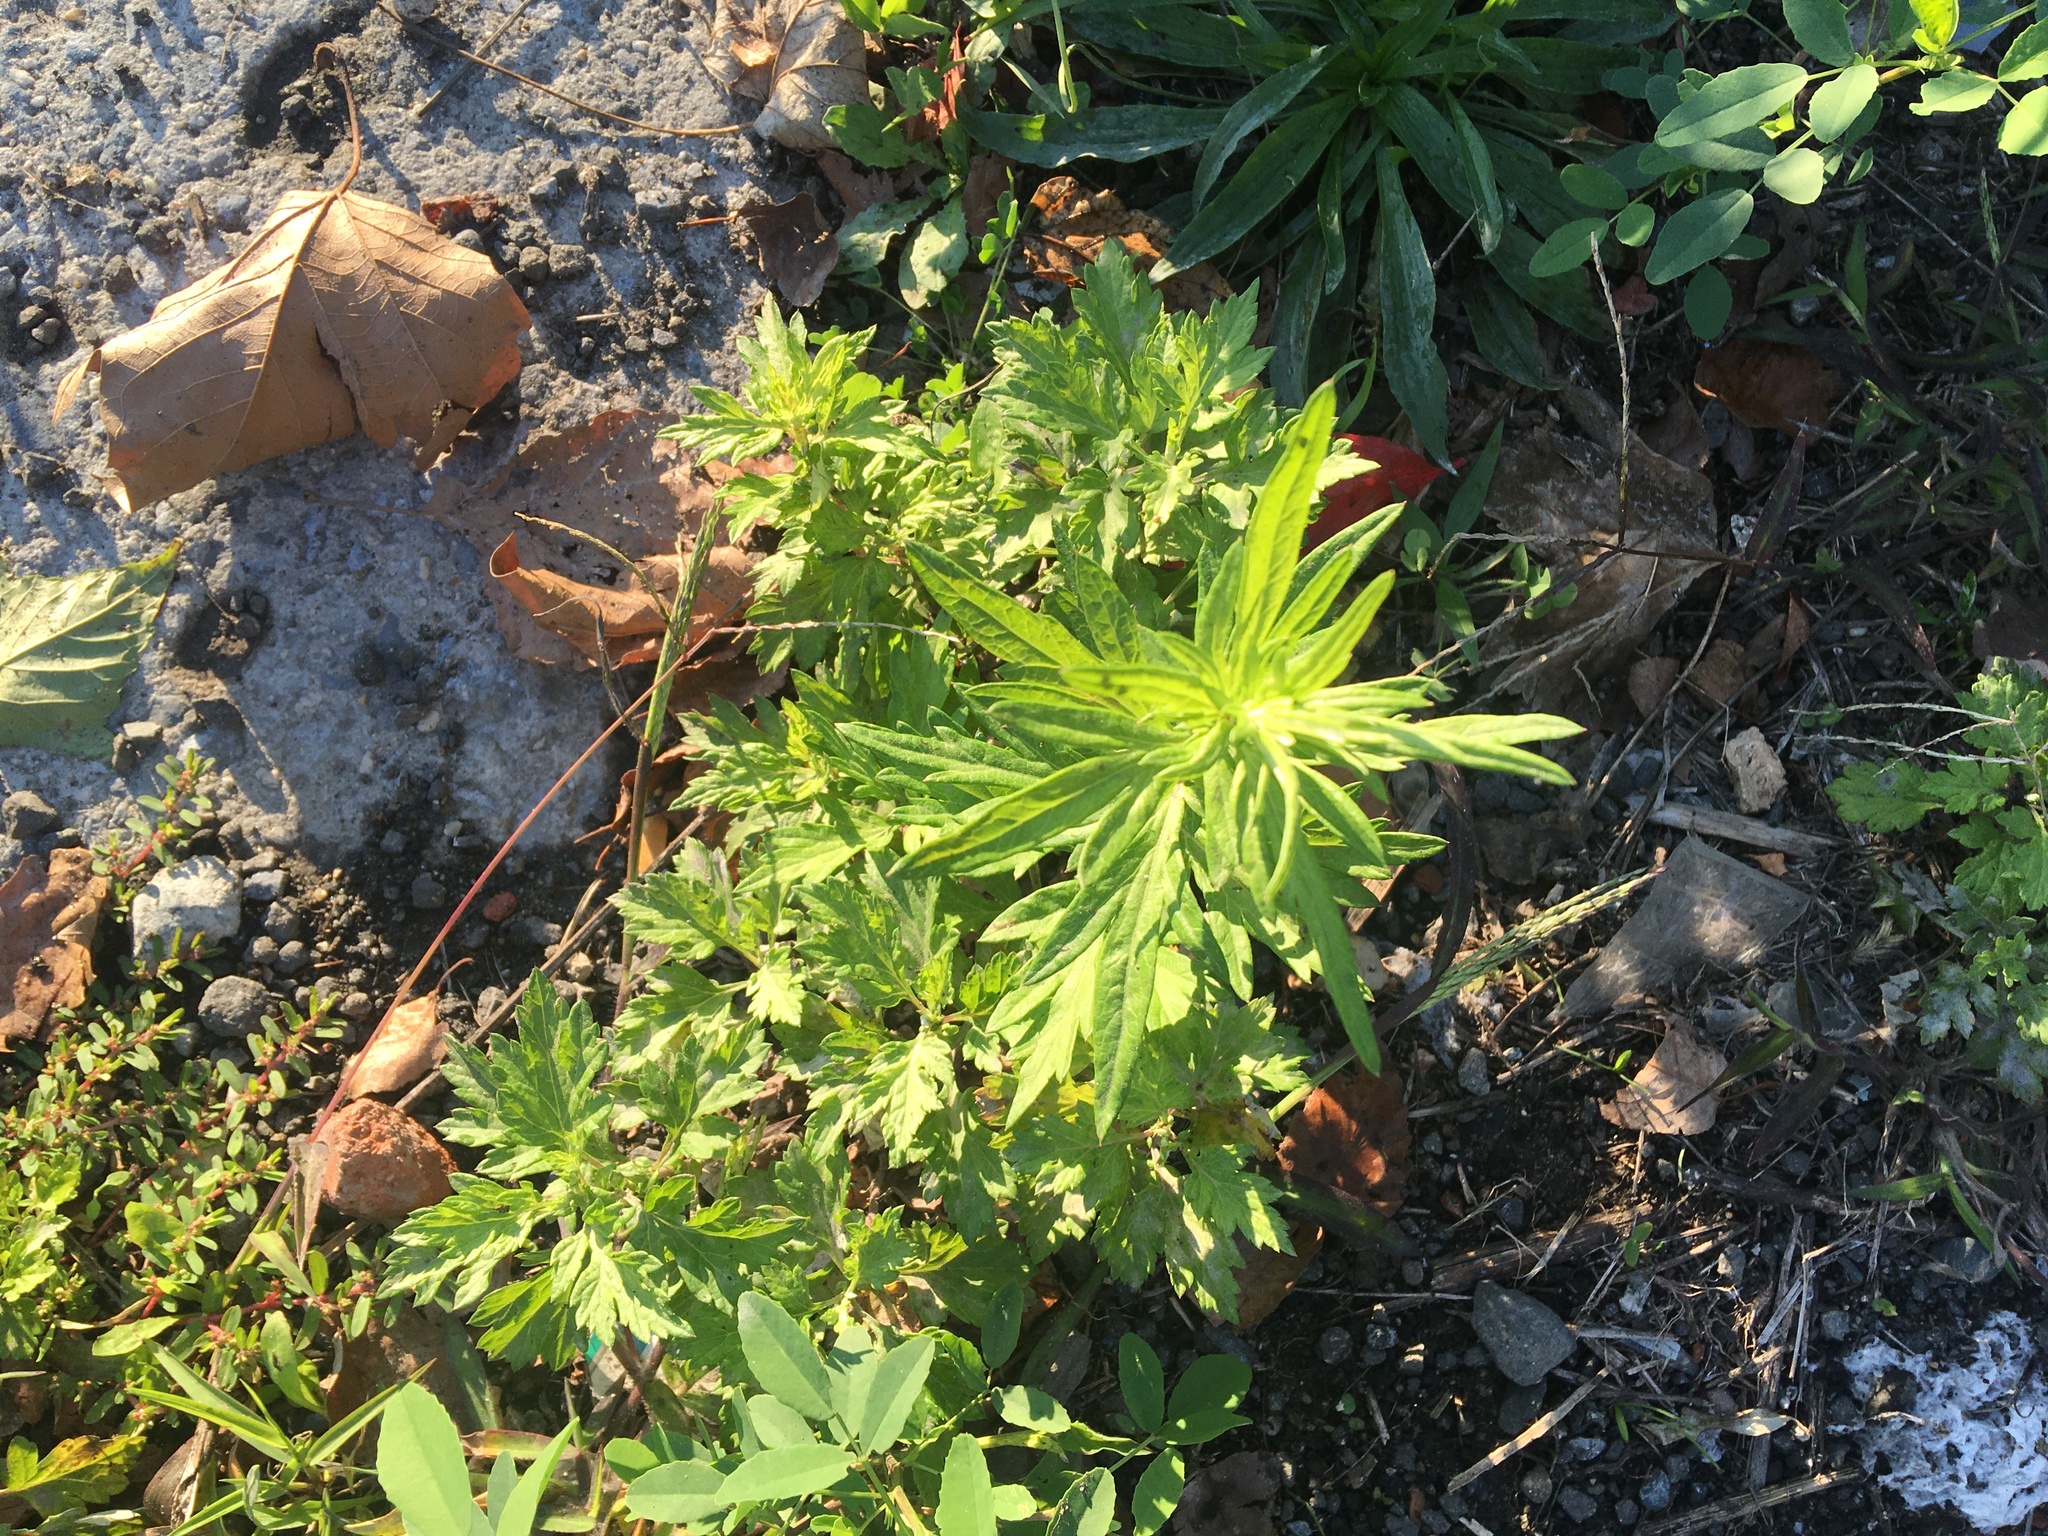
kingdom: Plantae
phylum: Tracheophyta
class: Magnoliopsida
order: Asterales
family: Asteraceae
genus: Artemisia
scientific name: Artemisia vulgaris
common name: Mugwort
